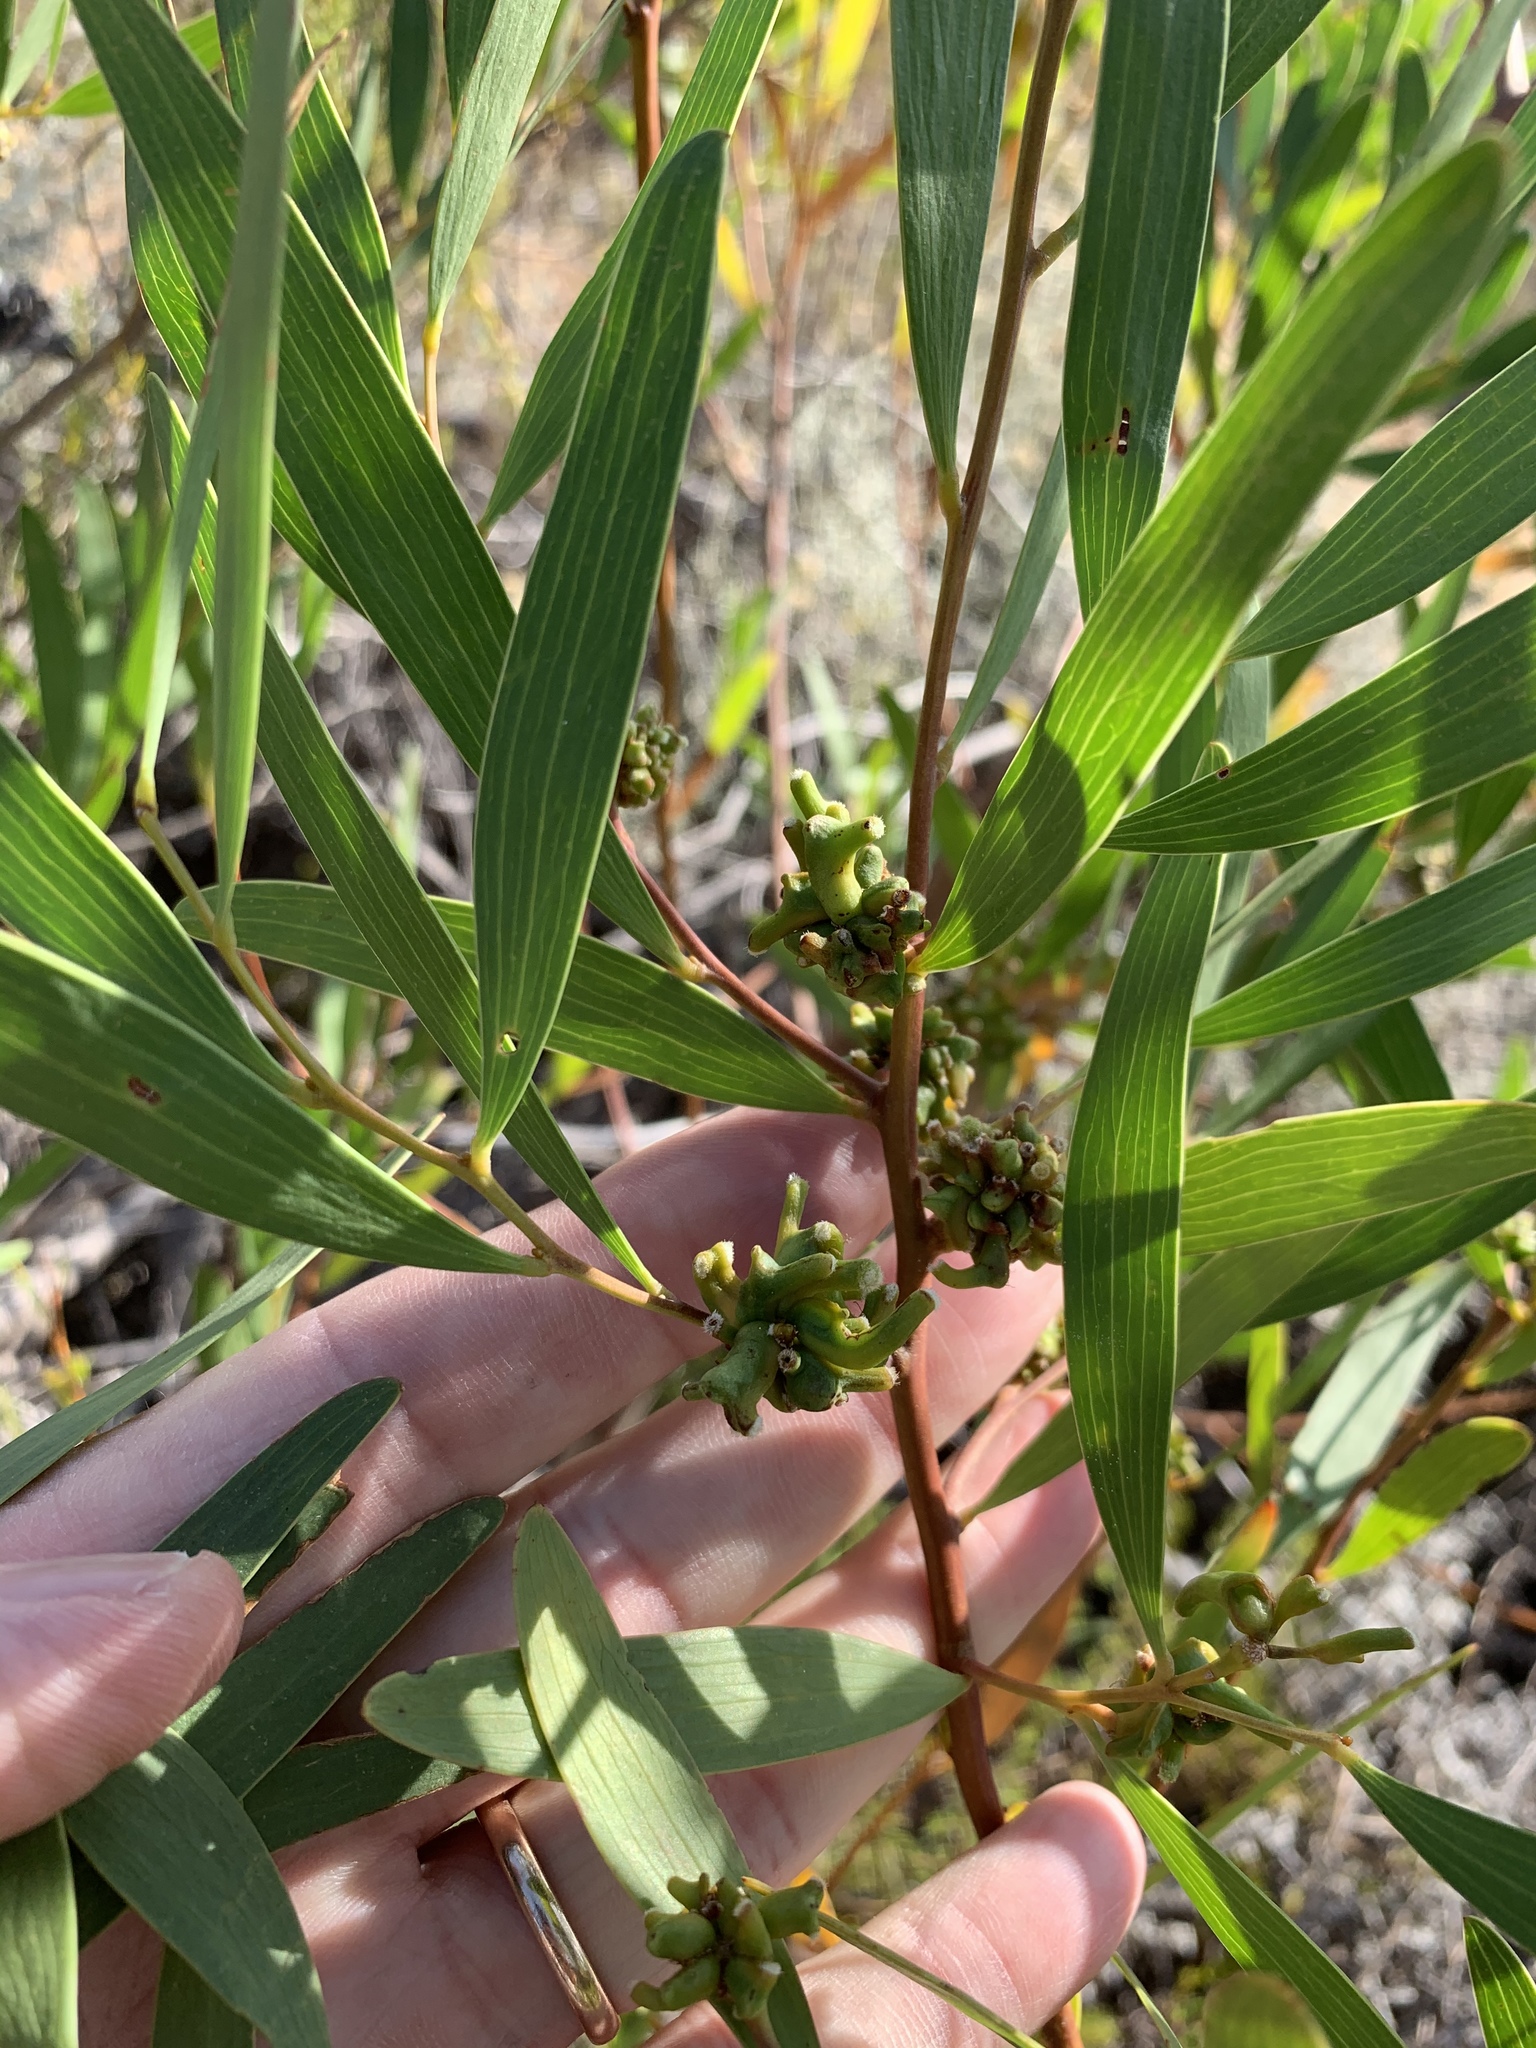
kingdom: Plantae
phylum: Tracheophyta
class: Magnoliopsida
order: Fabales
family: Fabaceae
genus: Acacia
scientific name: Acacia cyclops
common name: Coastal wattle
